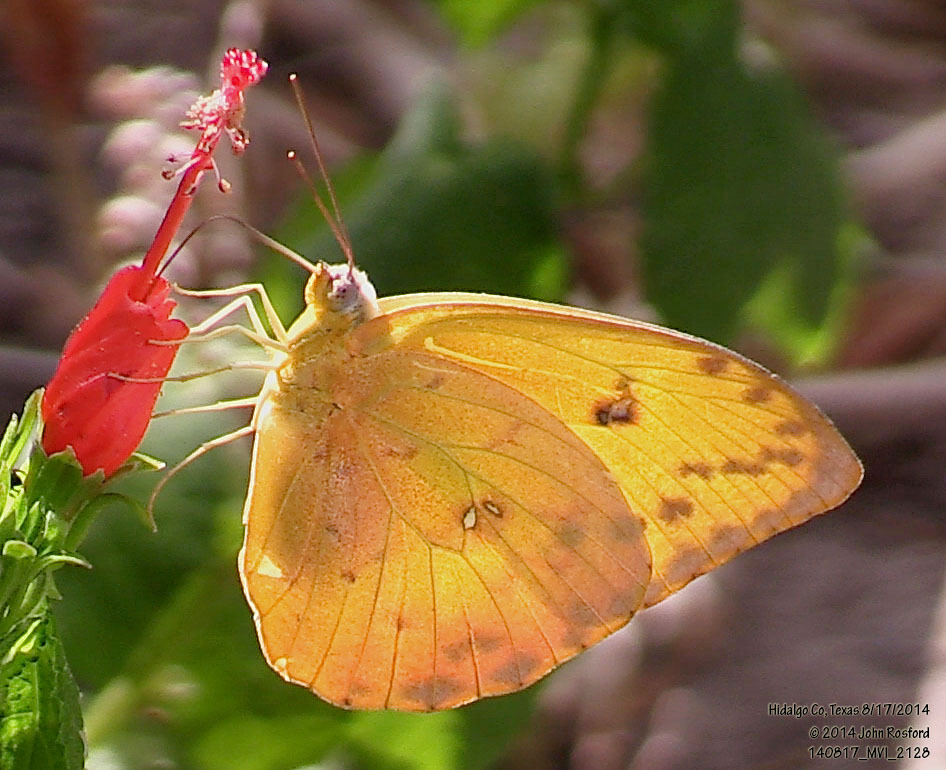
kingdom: Animalia
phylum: Arthropoda
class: Insecta
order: Lepidoptera
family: Pieridae
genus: Phoebis
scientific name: Phoebis philea
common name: Orange-barred giant sulphur
